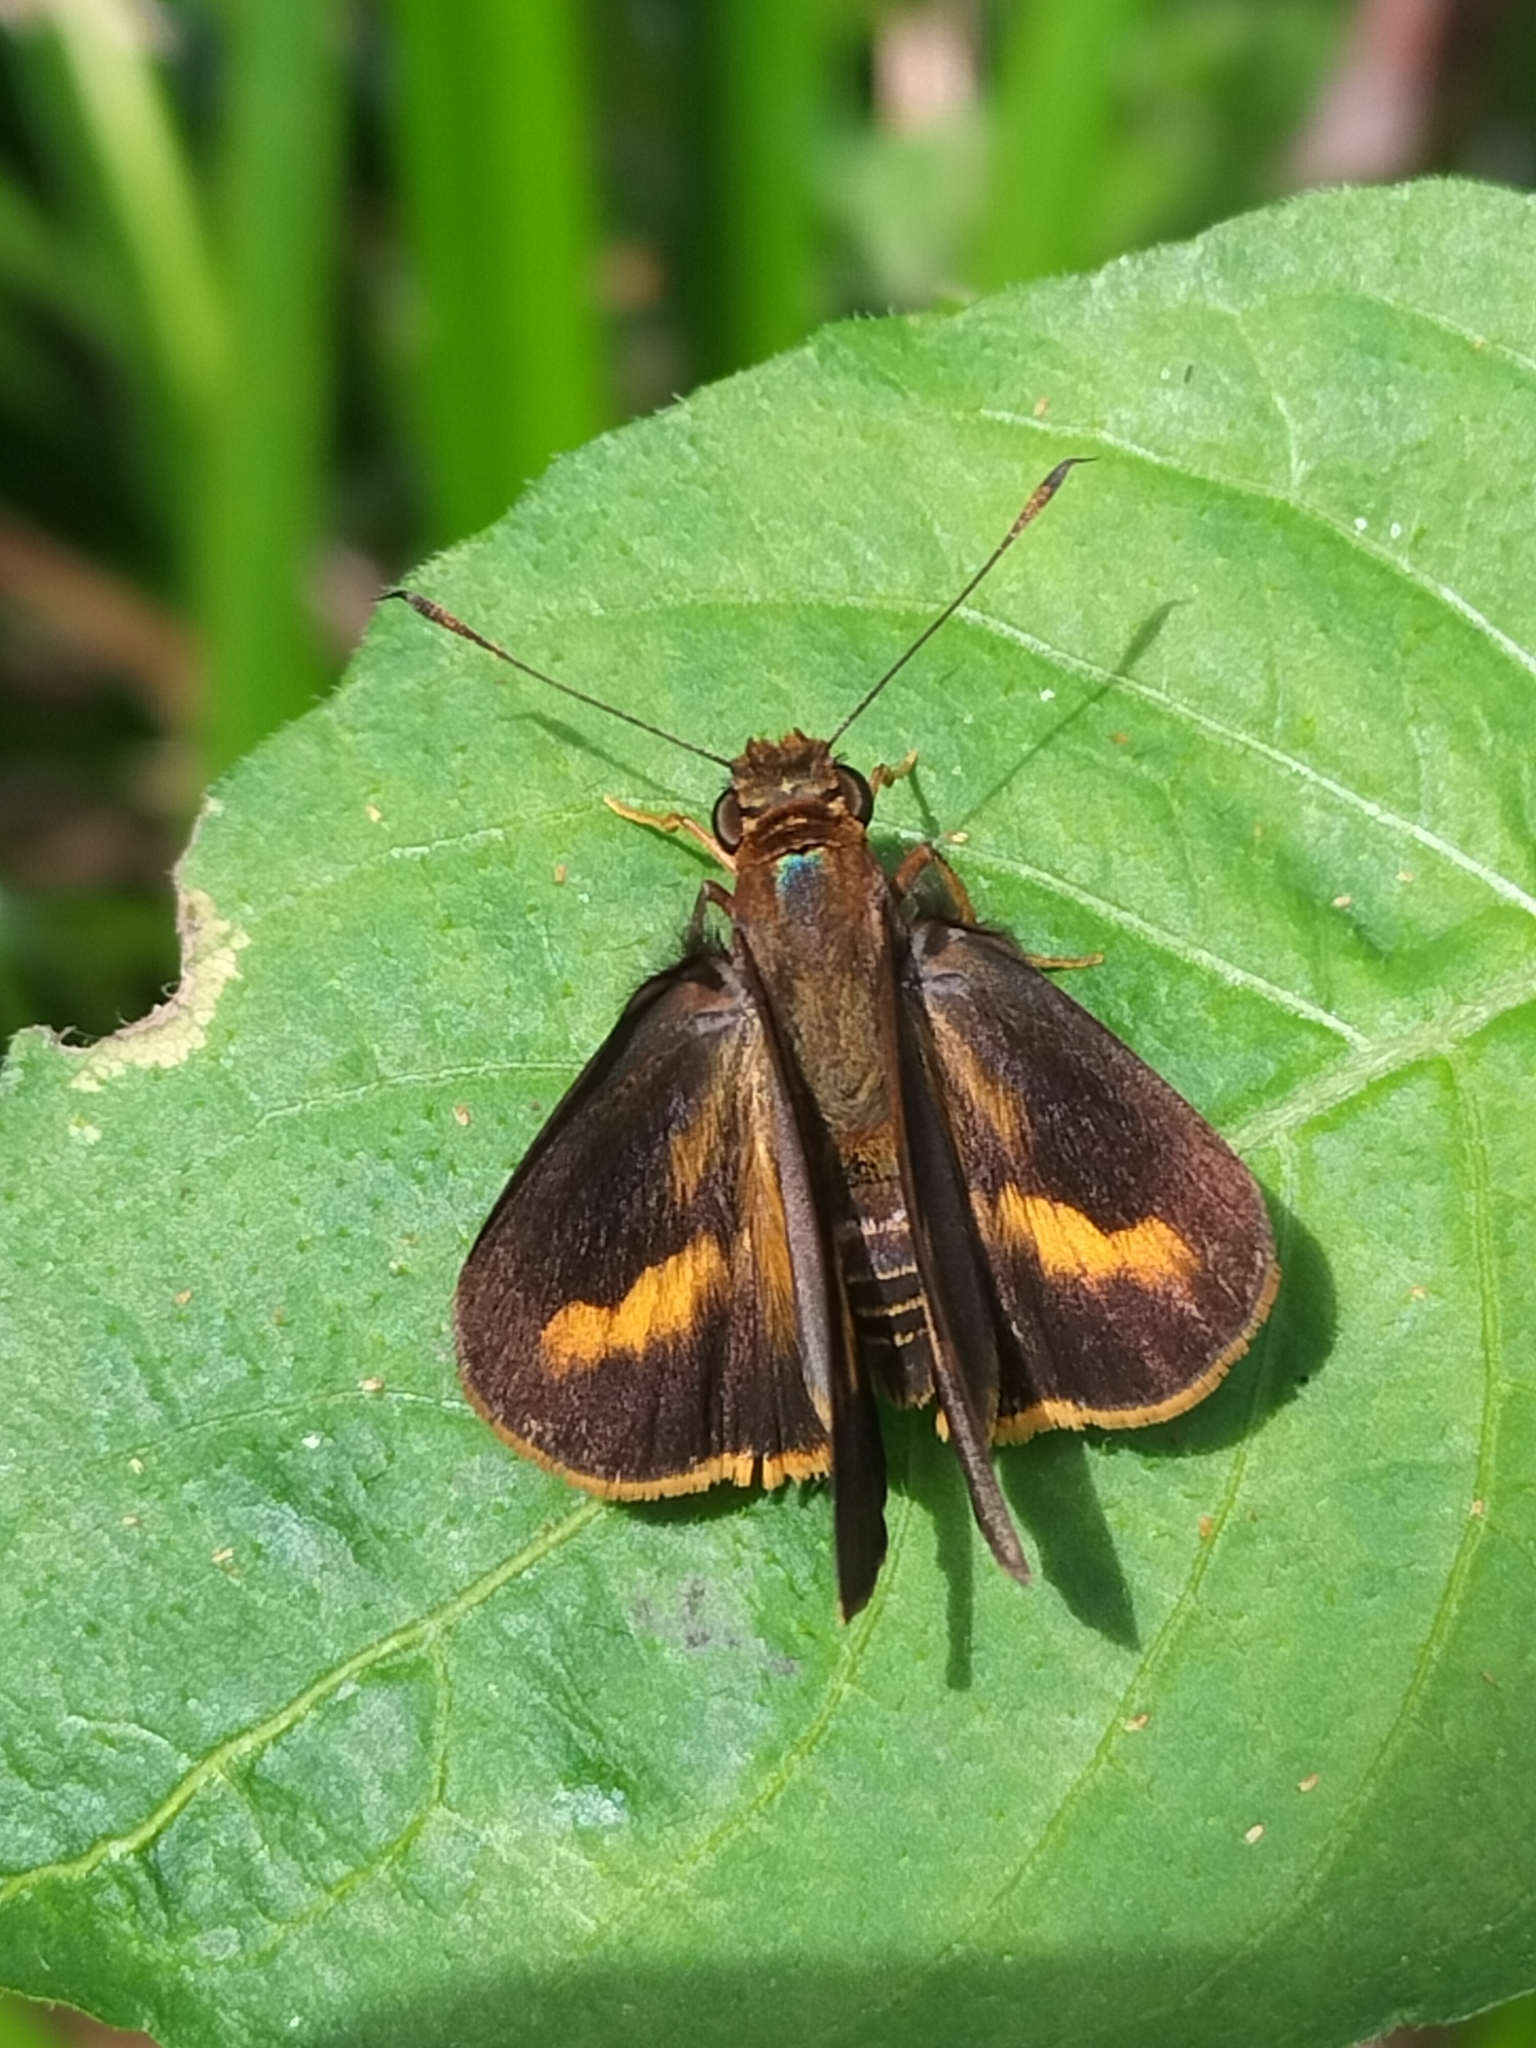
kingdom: Animalia
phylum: Arthropoda
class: Insecta
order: Lepidoptera
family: Hesperiidae
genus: Cephrenes
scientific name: Cephrenes augiades
